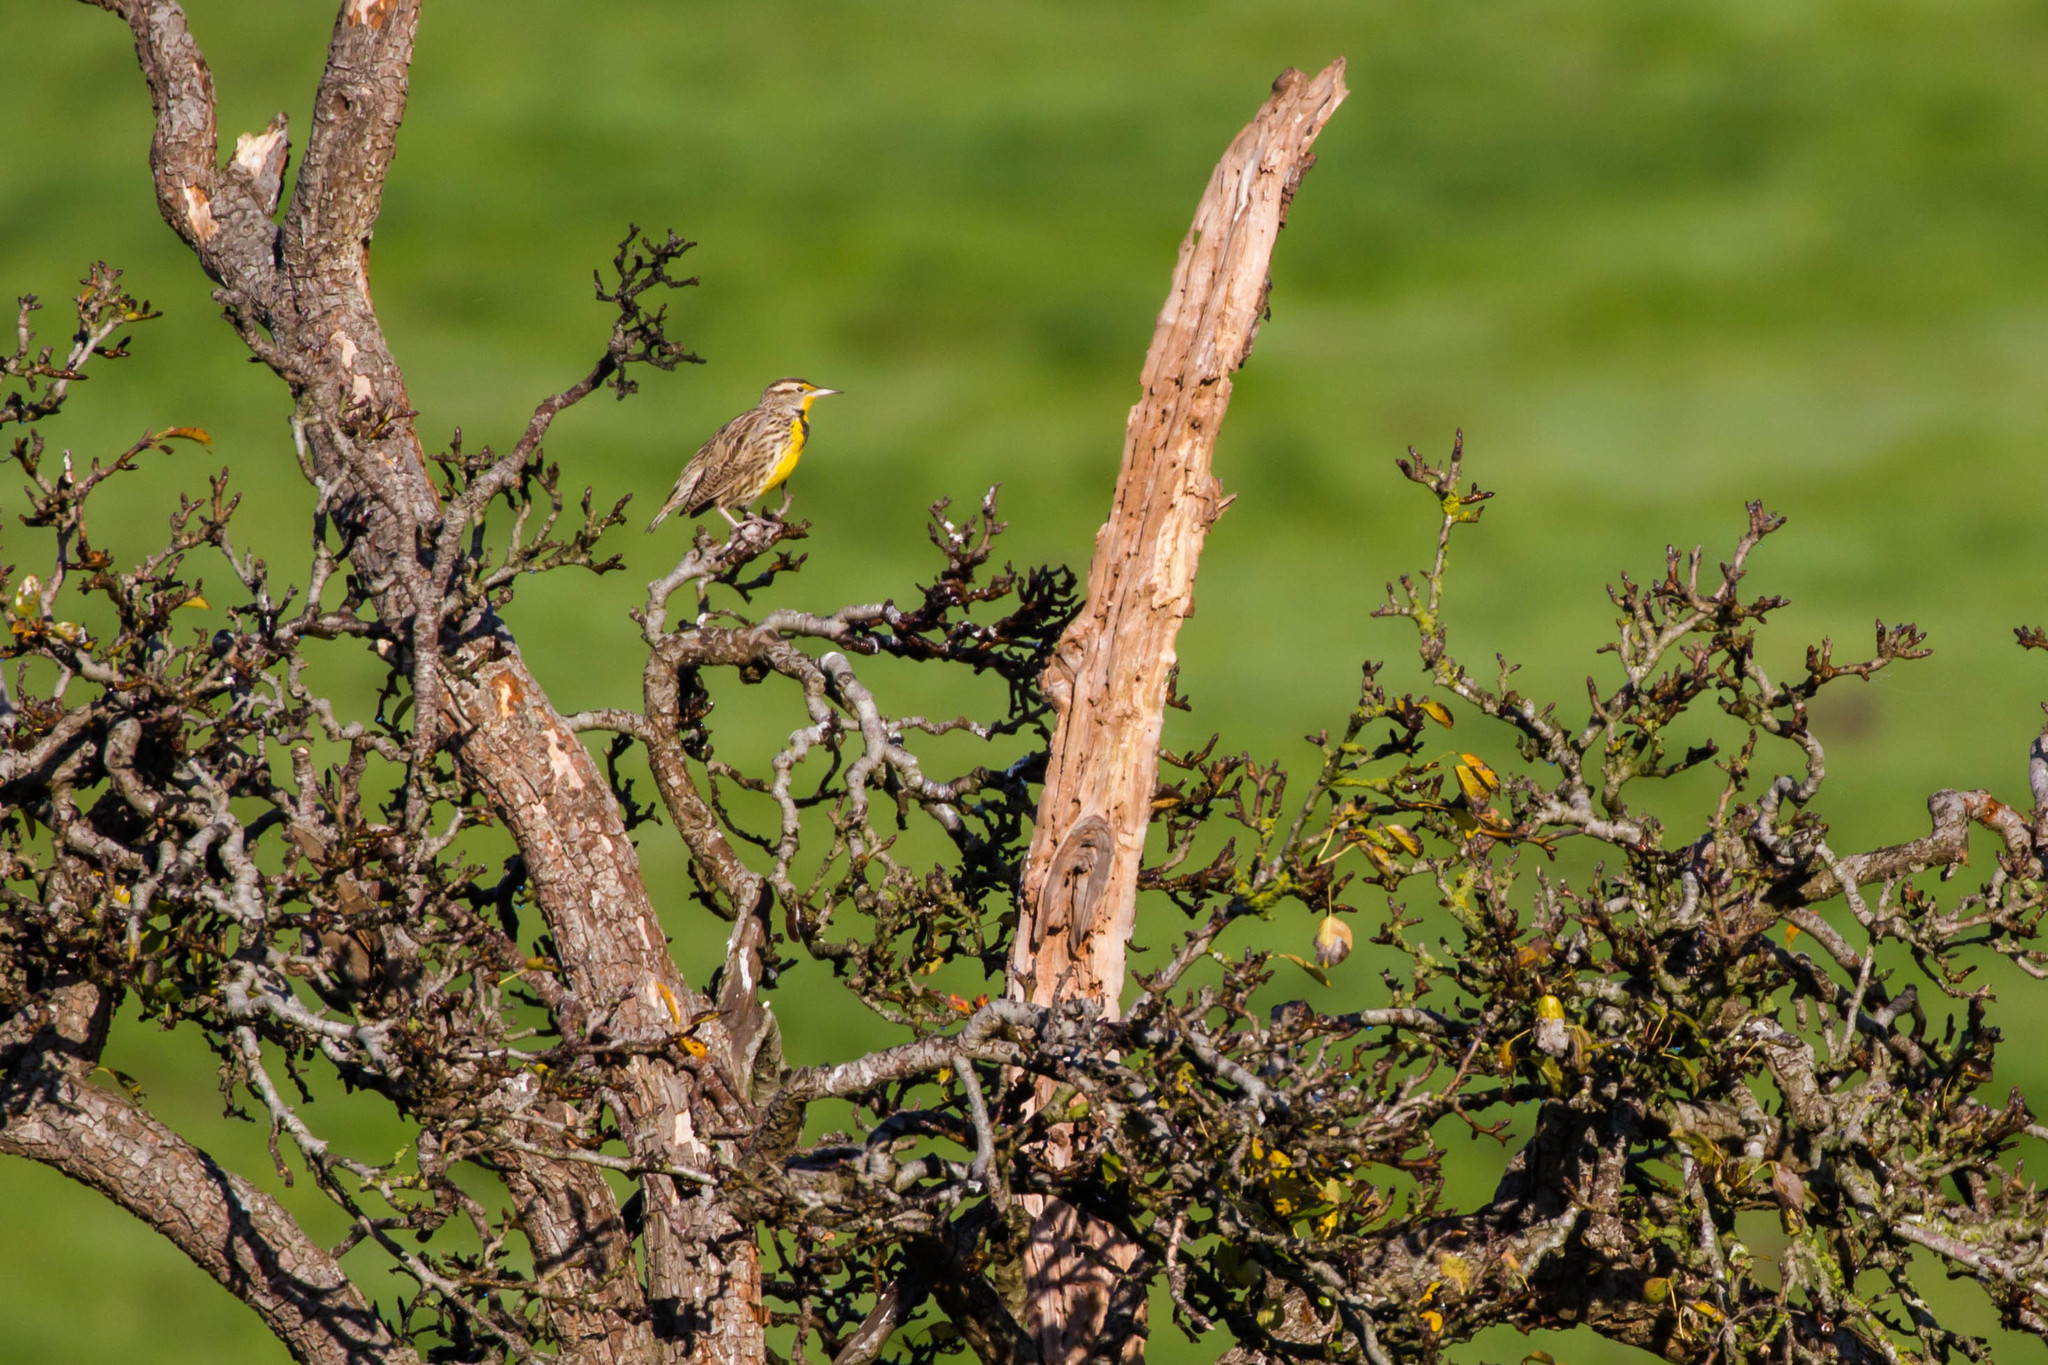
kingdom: Animalia
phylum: Chordata
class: Aves
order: Passeriformes
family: Icteridae
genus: Sturnella
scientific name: Sturnella neglecta
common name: Western meadowlark
